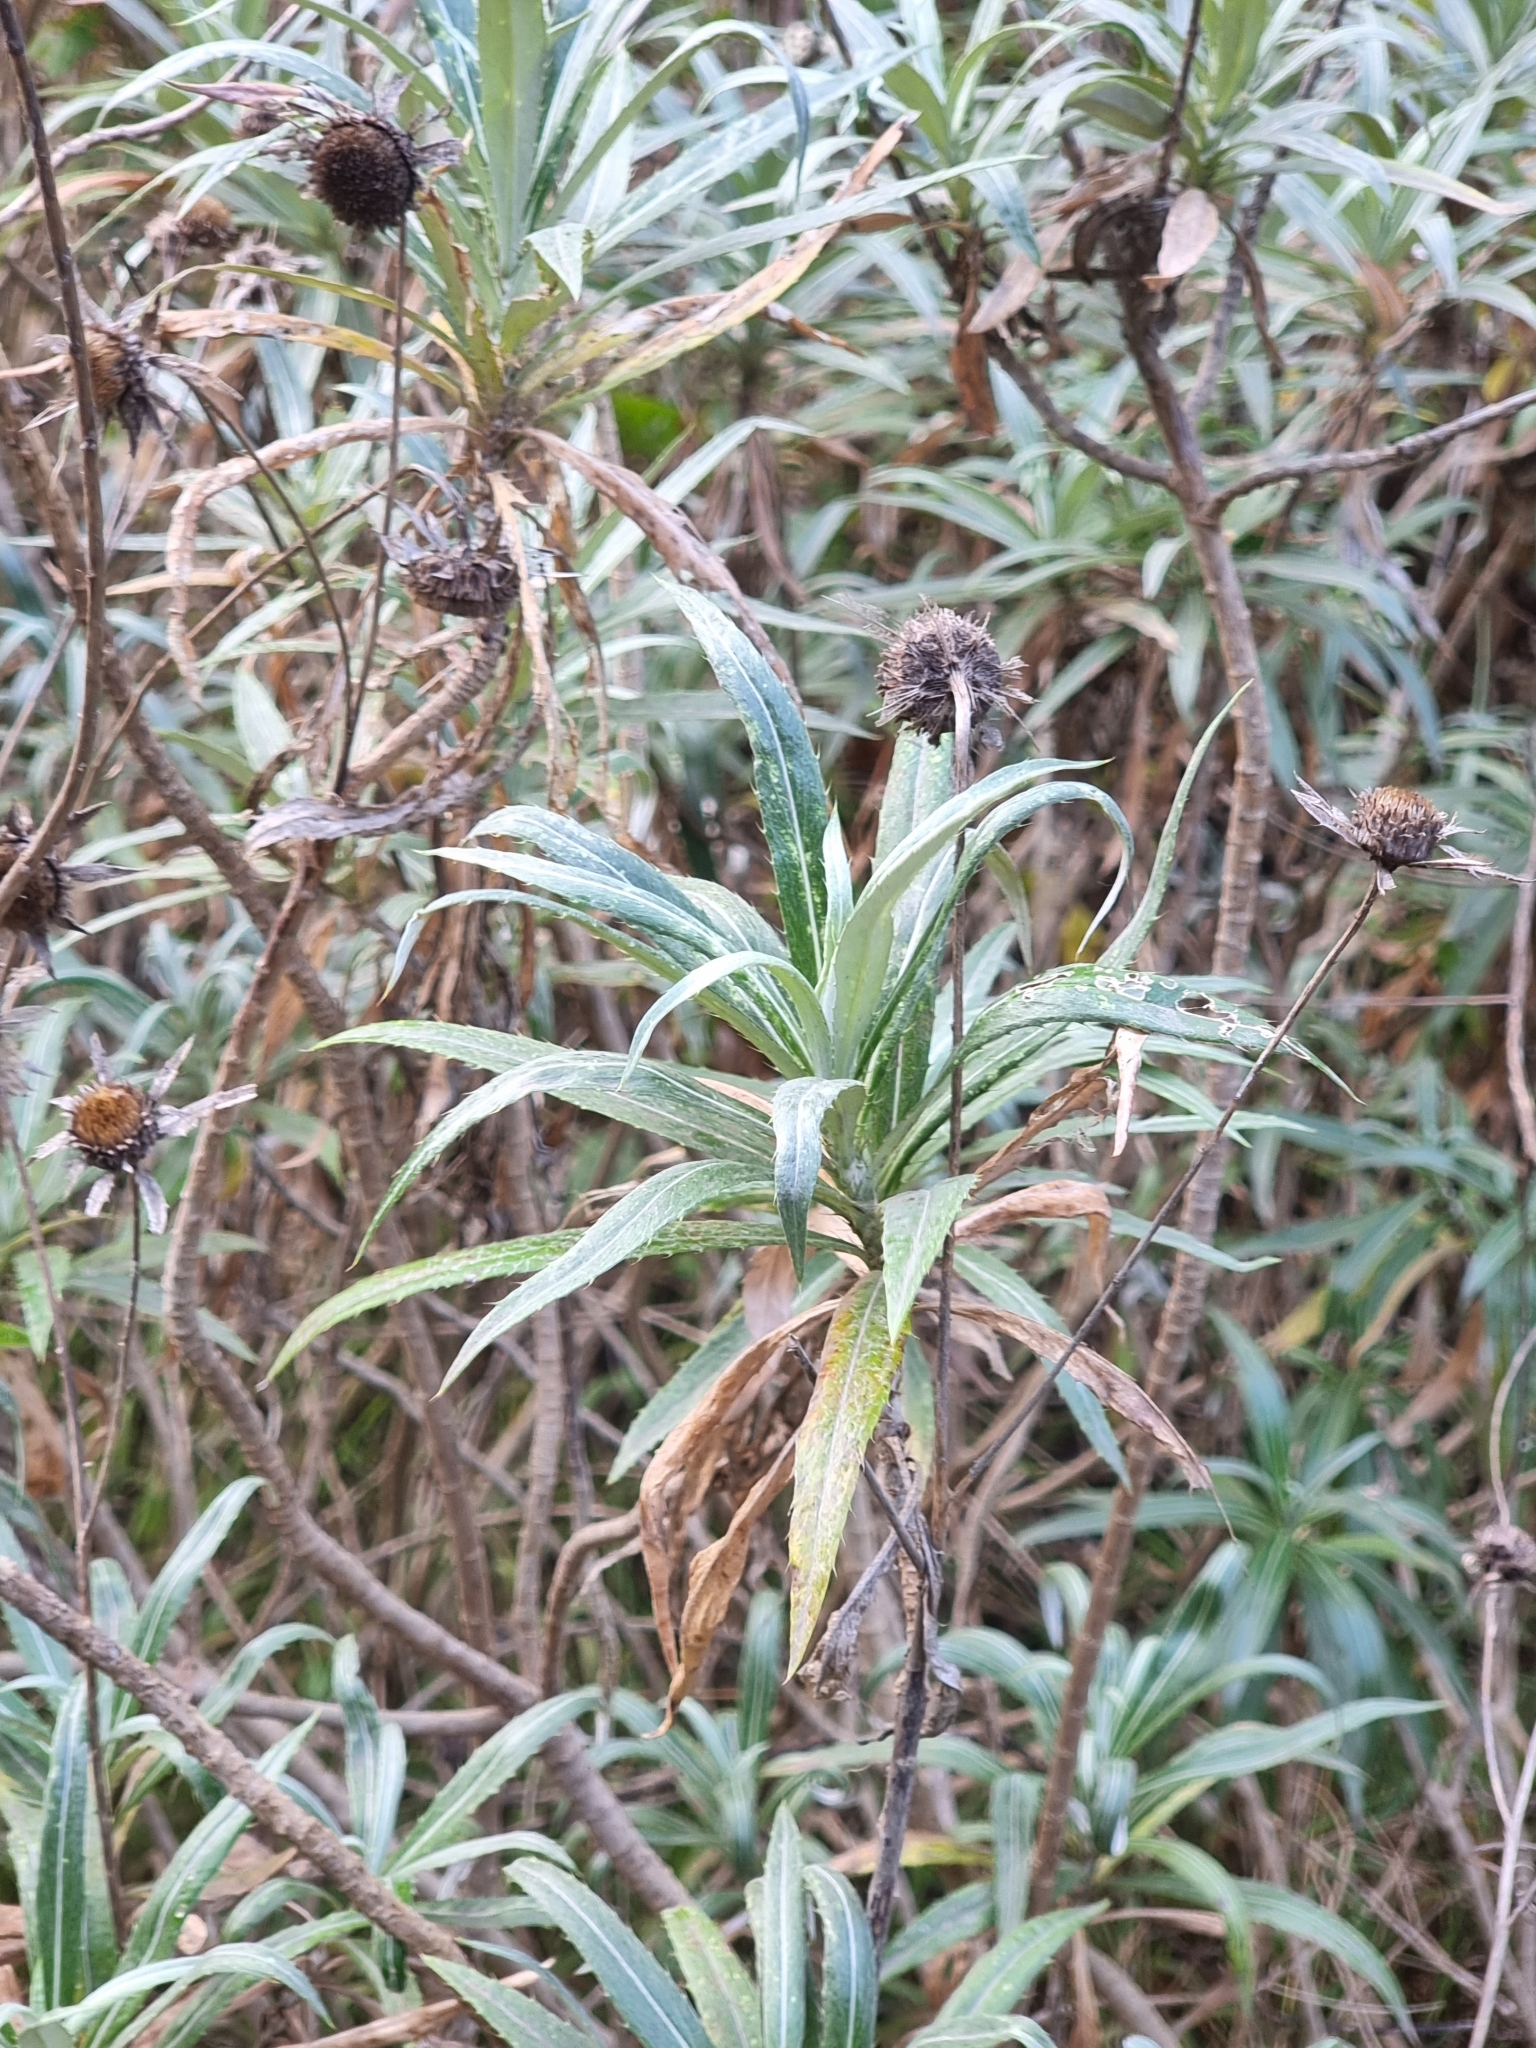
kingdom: Plantae
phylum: Tracheophyta
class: Magnoliopsida
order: Asterales
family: Asteraceae
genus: Carlina
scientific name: Carlina salicifolia
